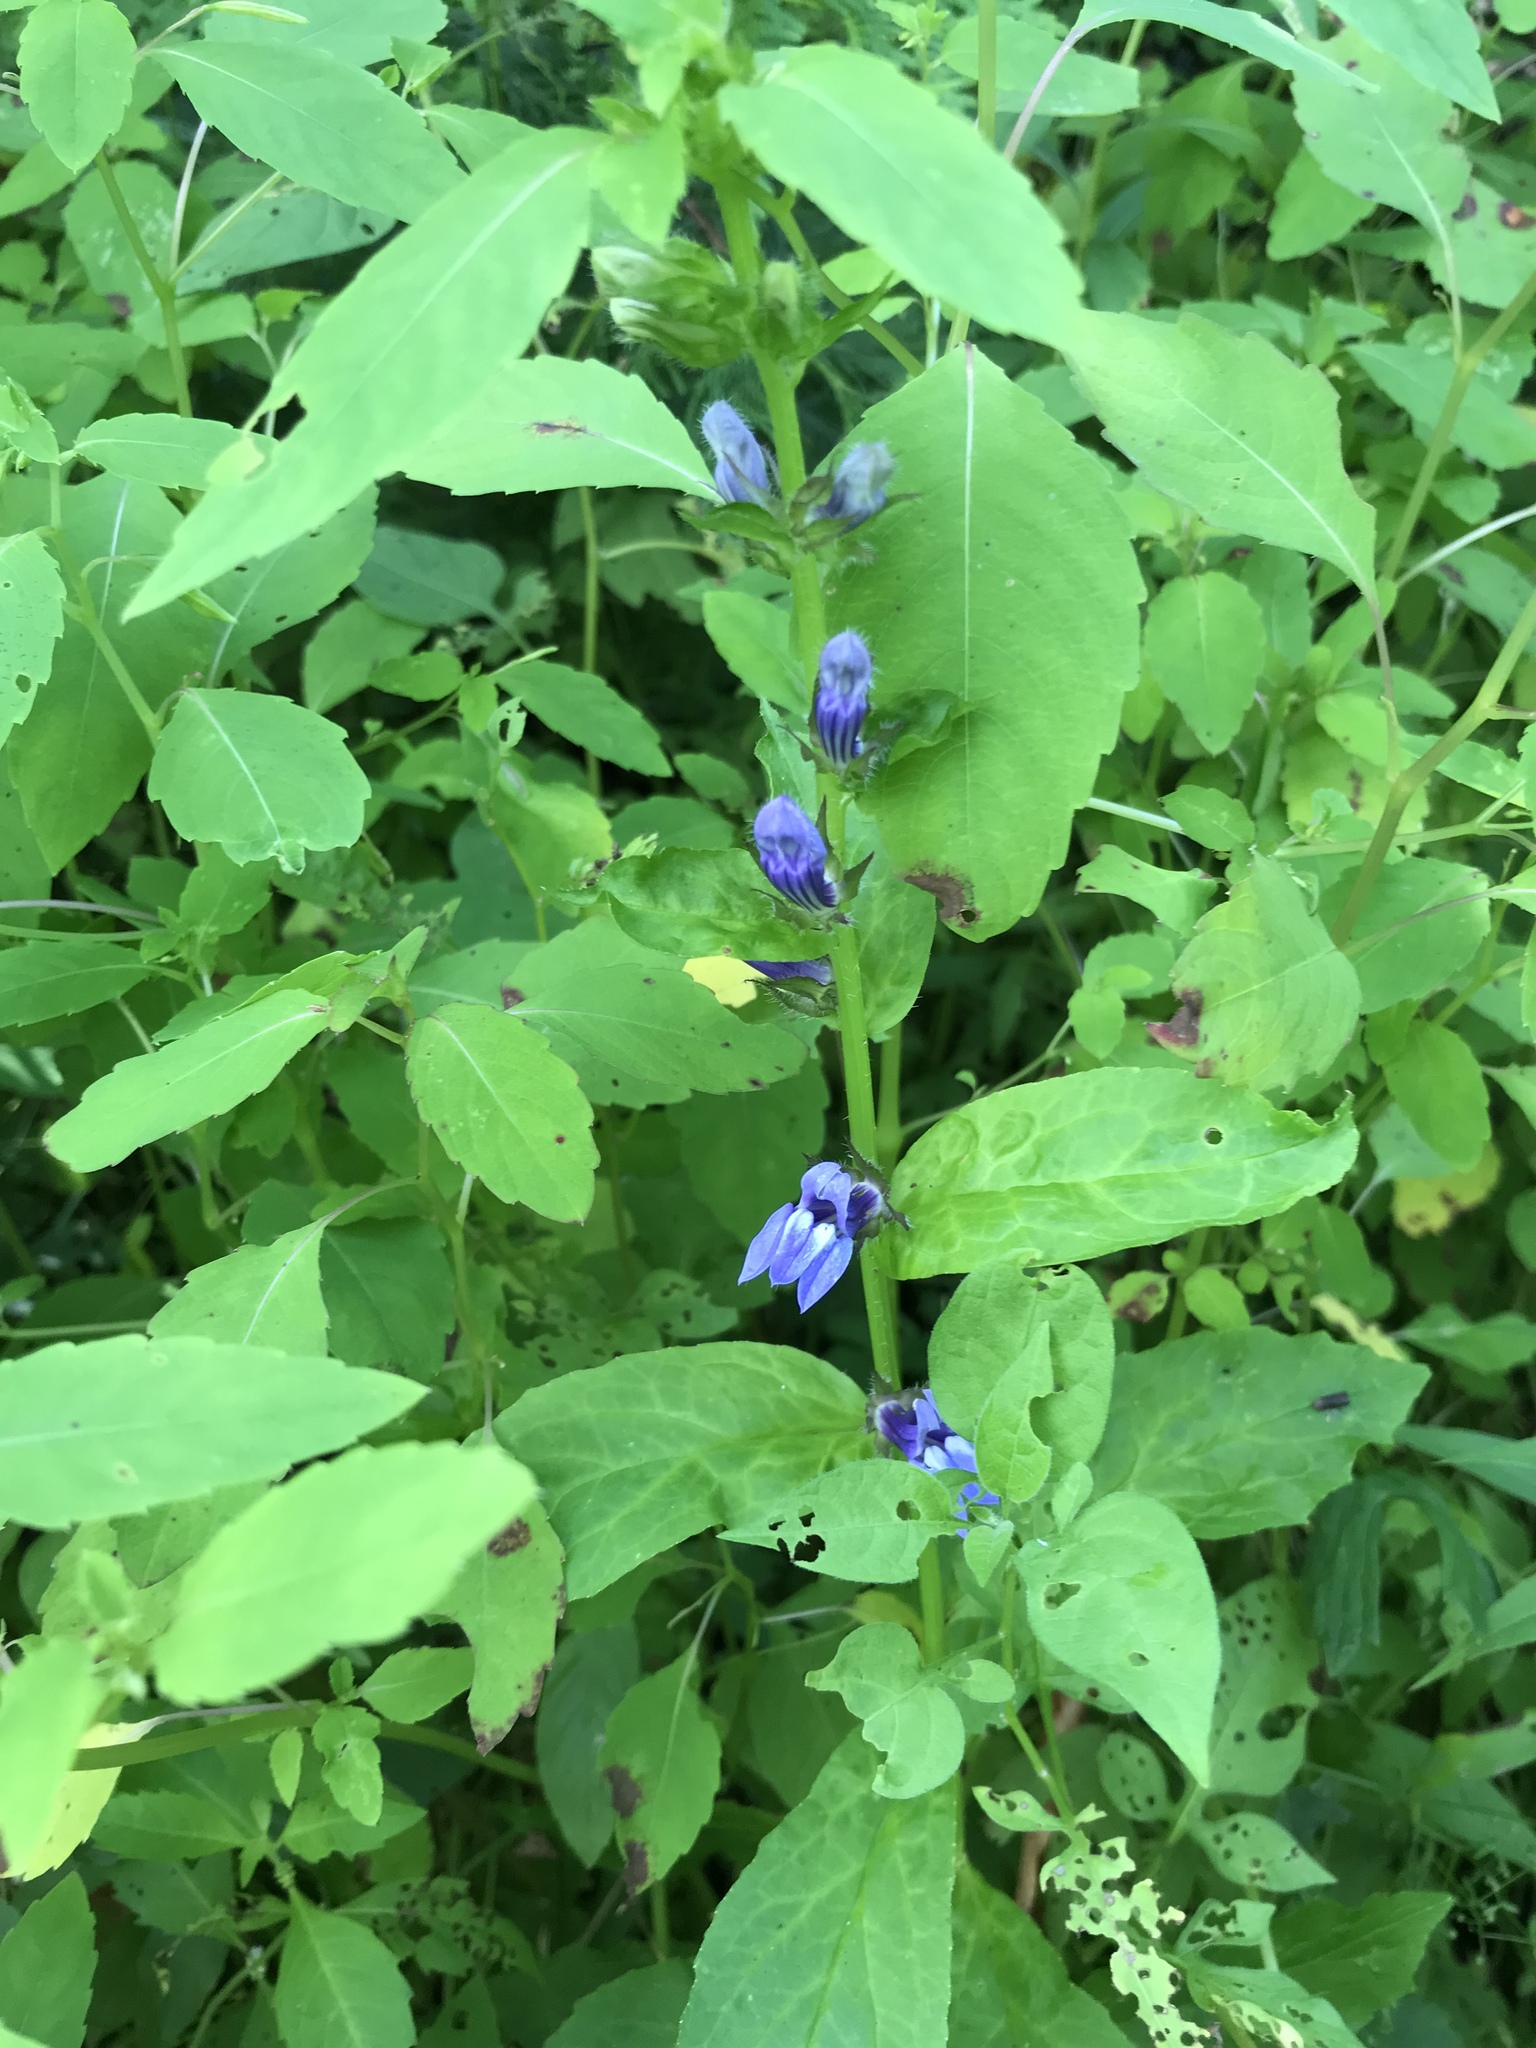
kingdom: Plantae
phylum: Tracheophyta
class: Magnoliopsida
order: Asterales
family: Campanulaceae
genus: Lobelia
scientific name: Lobelia siphilitica
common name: Great lobelia
